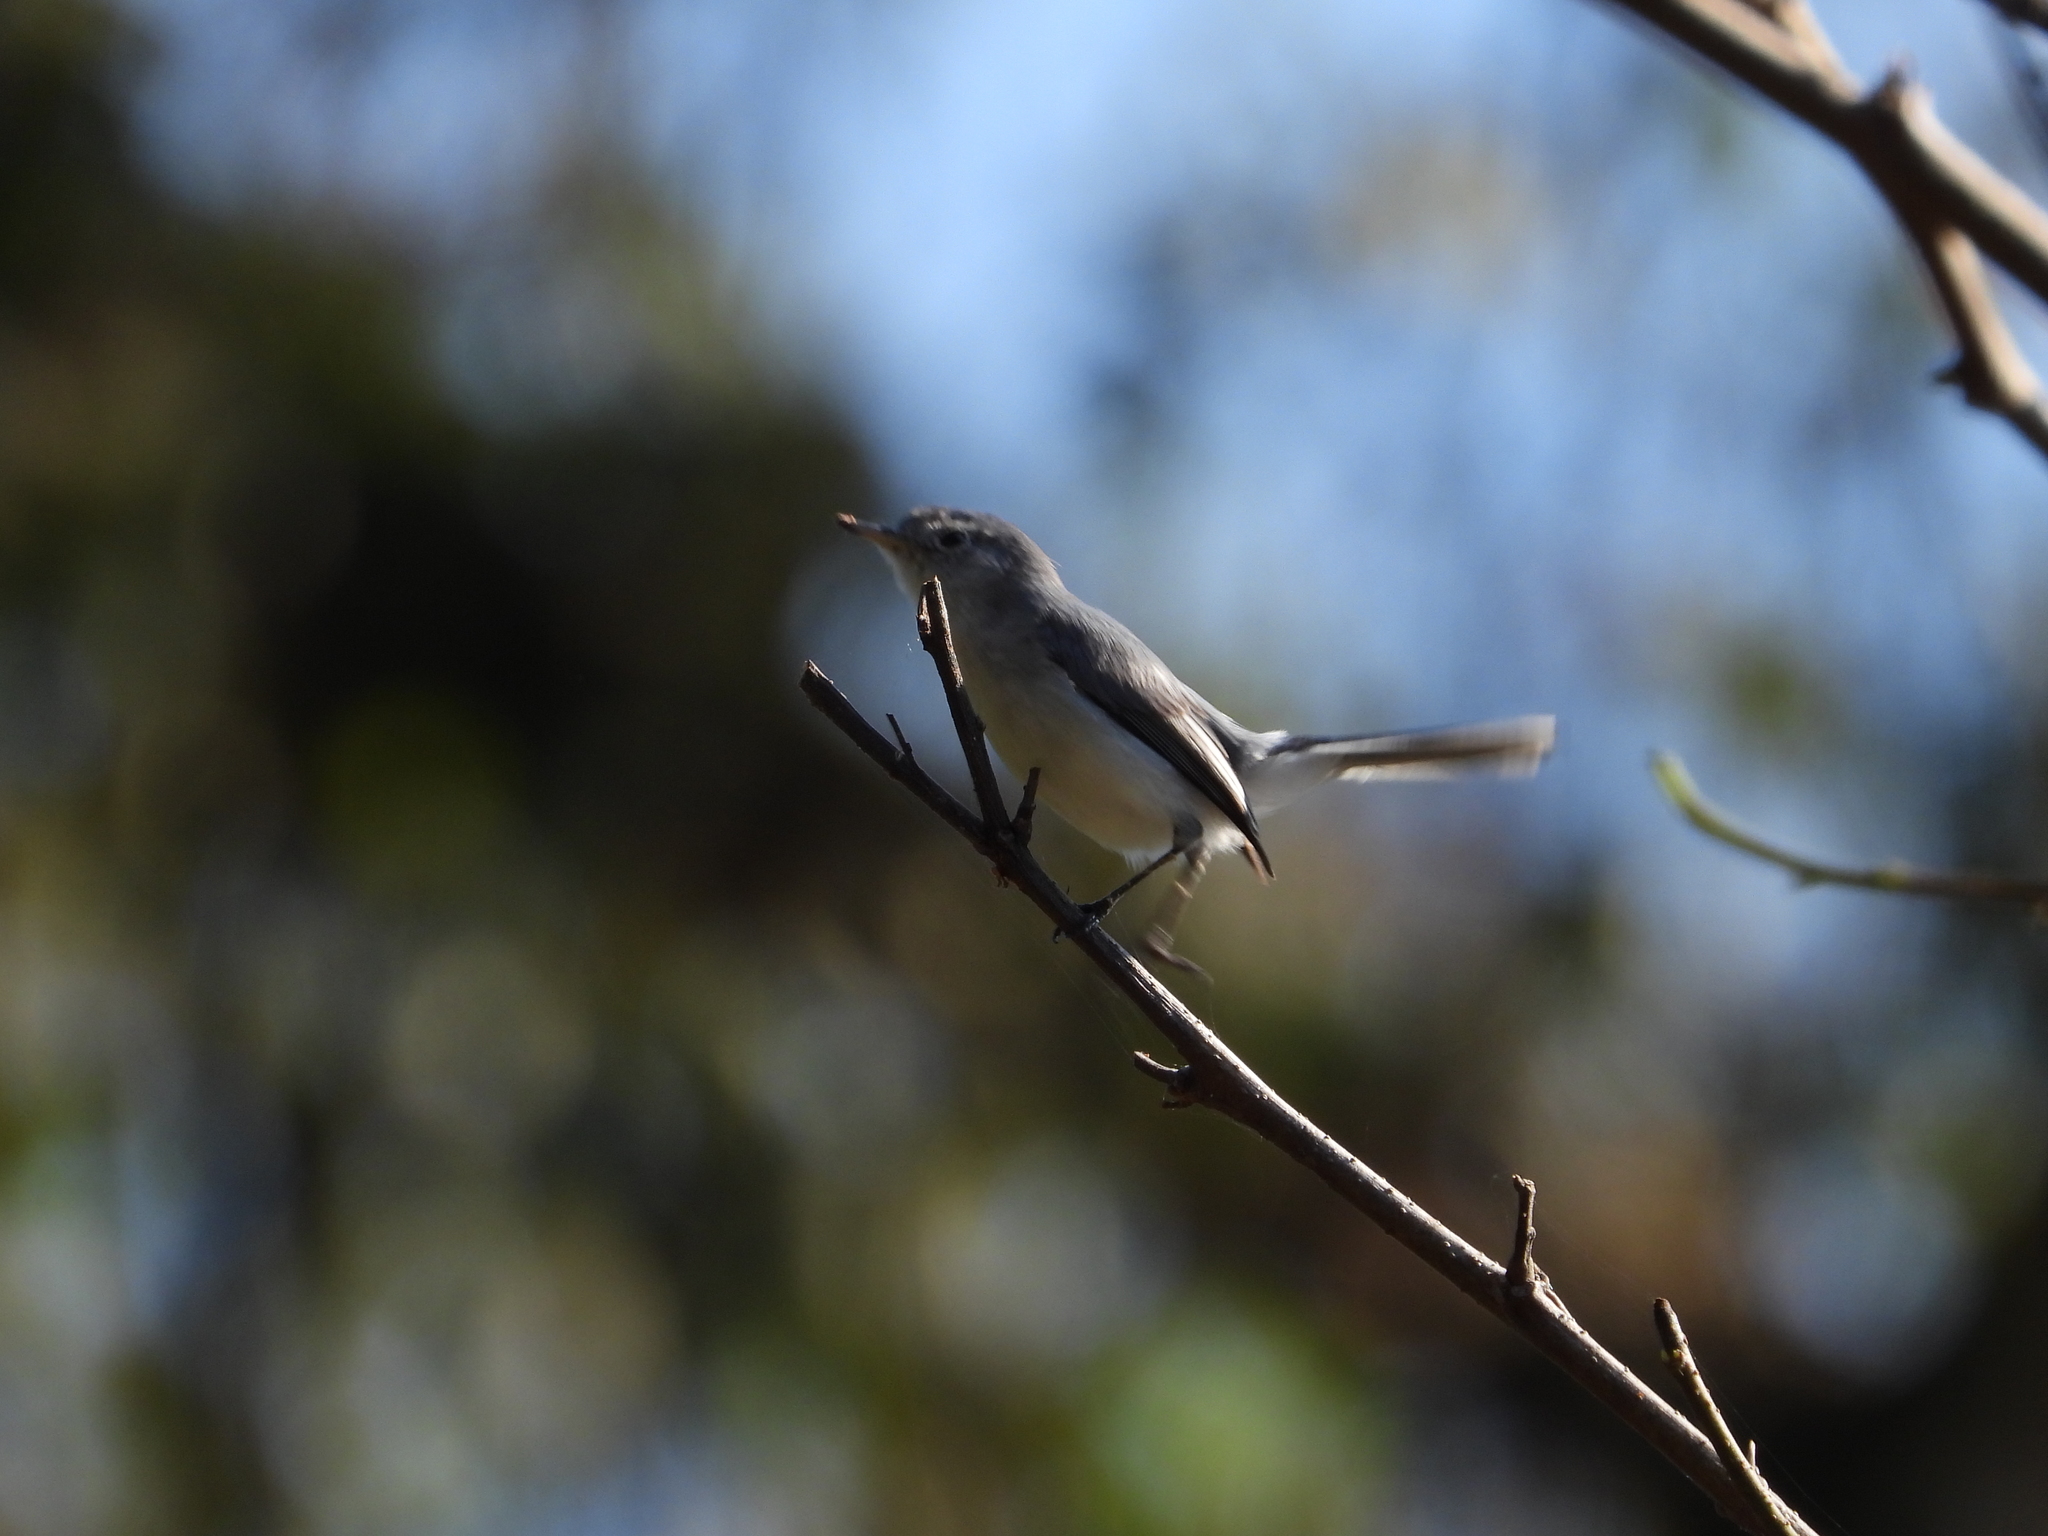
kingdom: Animalia
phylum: Chordata
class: Aves
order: Passeriformes
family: Polioptilidae
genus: Polioptila
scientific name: Polioptila caerulea
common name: Blue-gray gnatcatcher
